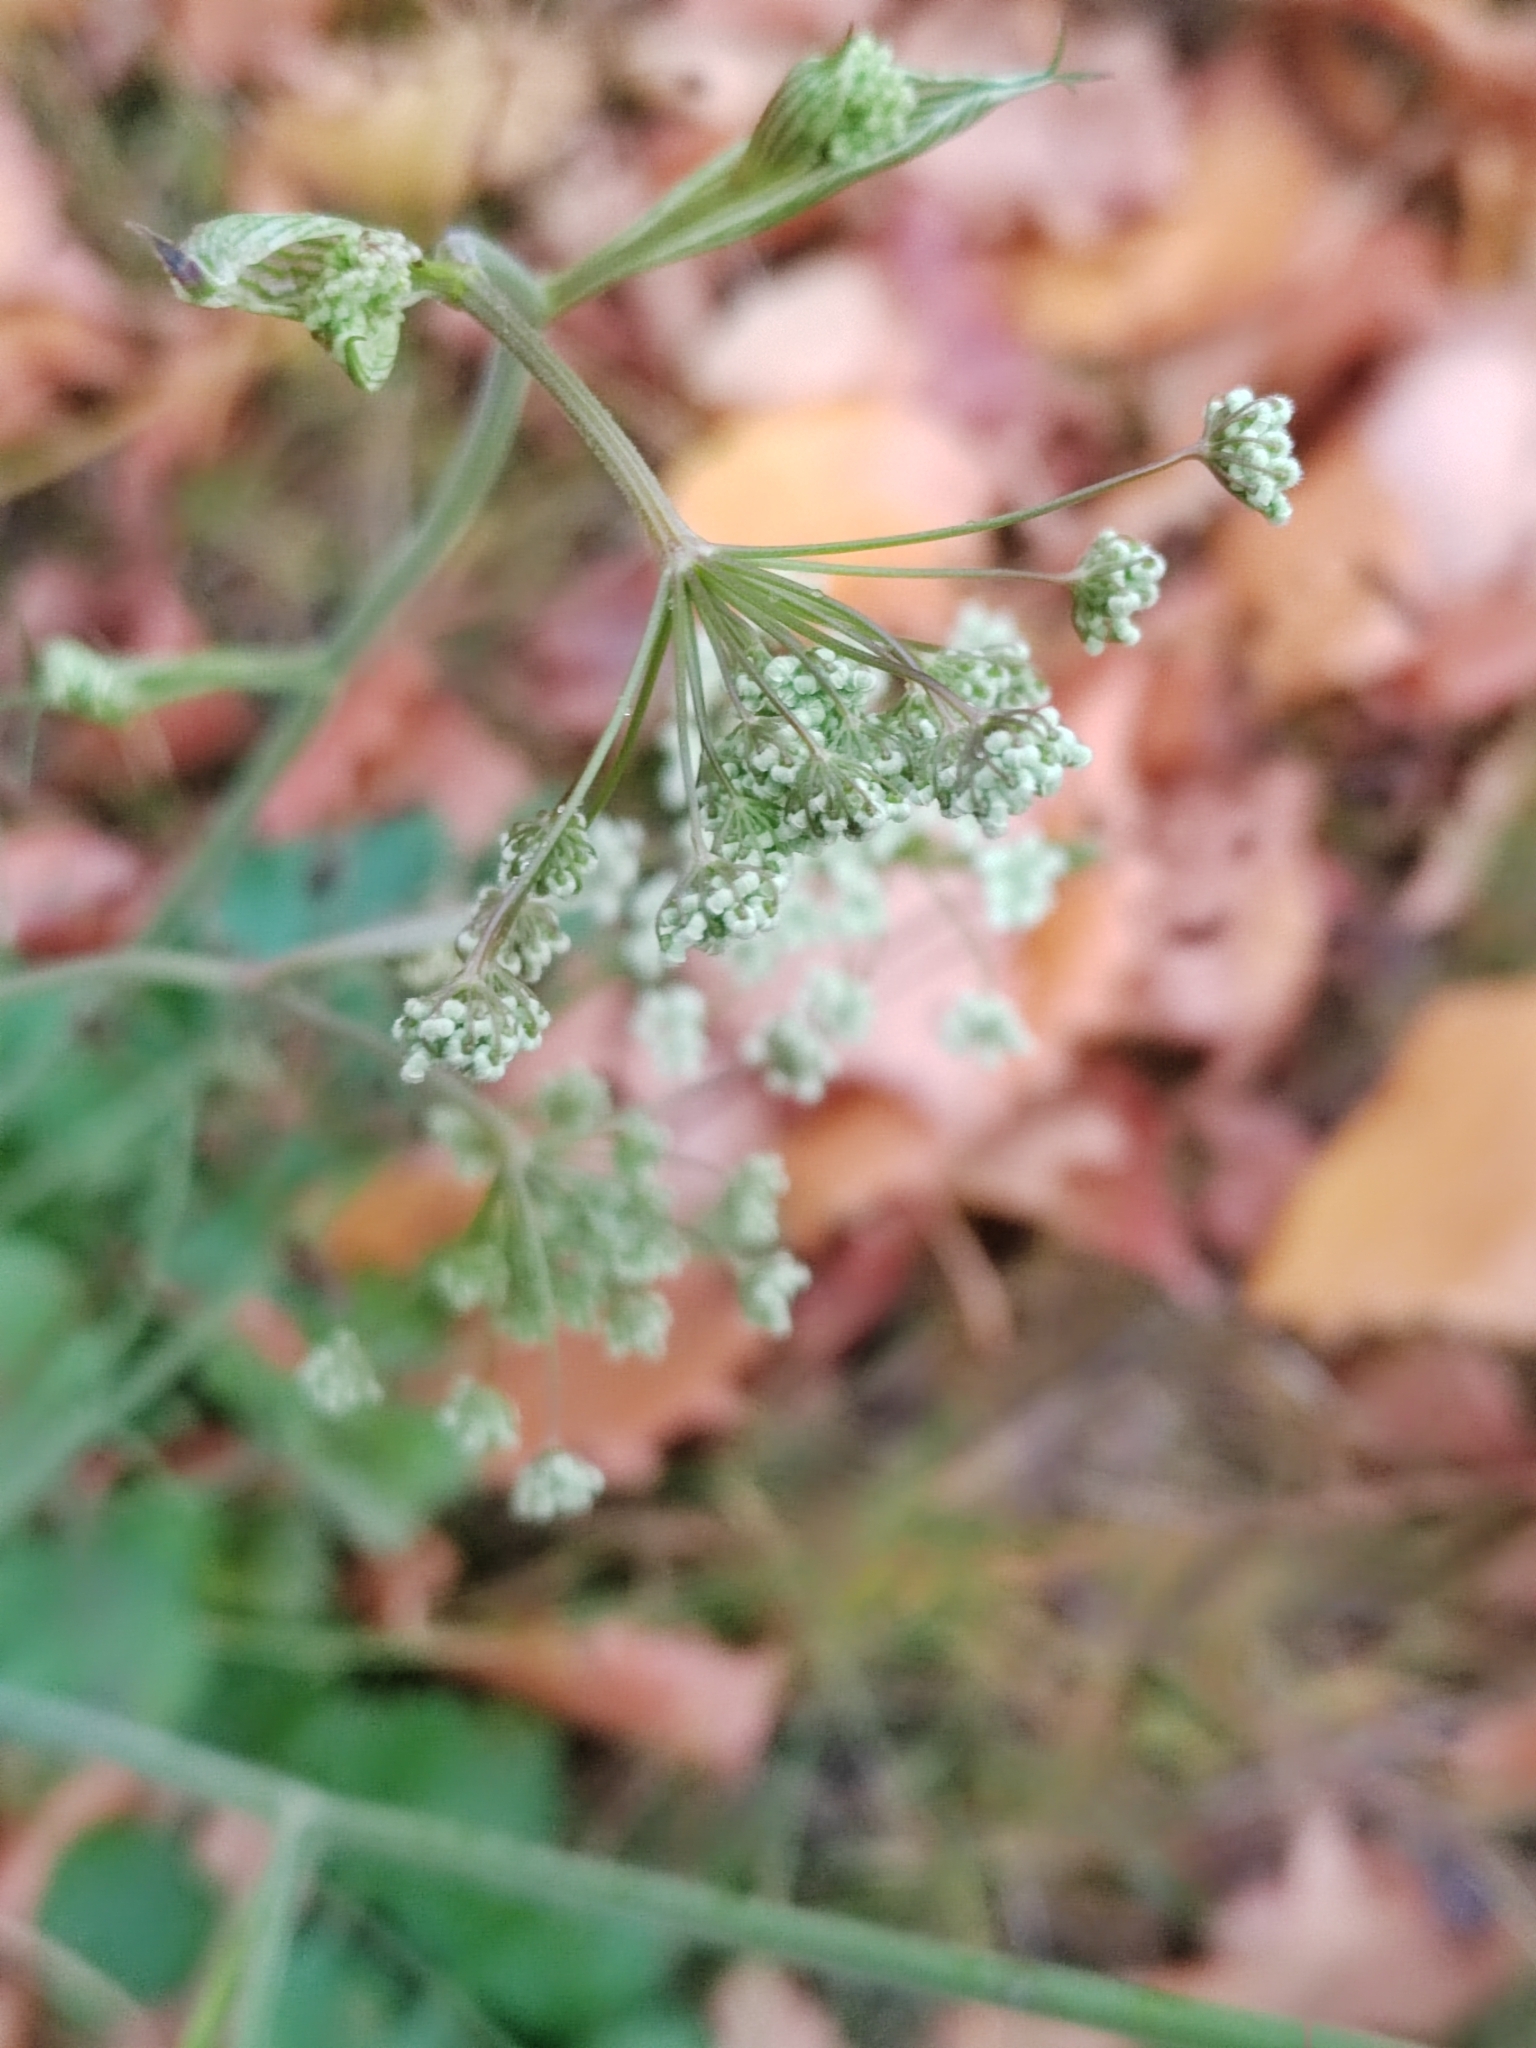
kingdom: Plantae
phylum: Tracheophyta
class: Magnoliopsida
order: Apiales
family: Apiaceae
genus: Pimpinella
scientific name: Pimpinella saxifraga
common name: Burnet-saxifrage
